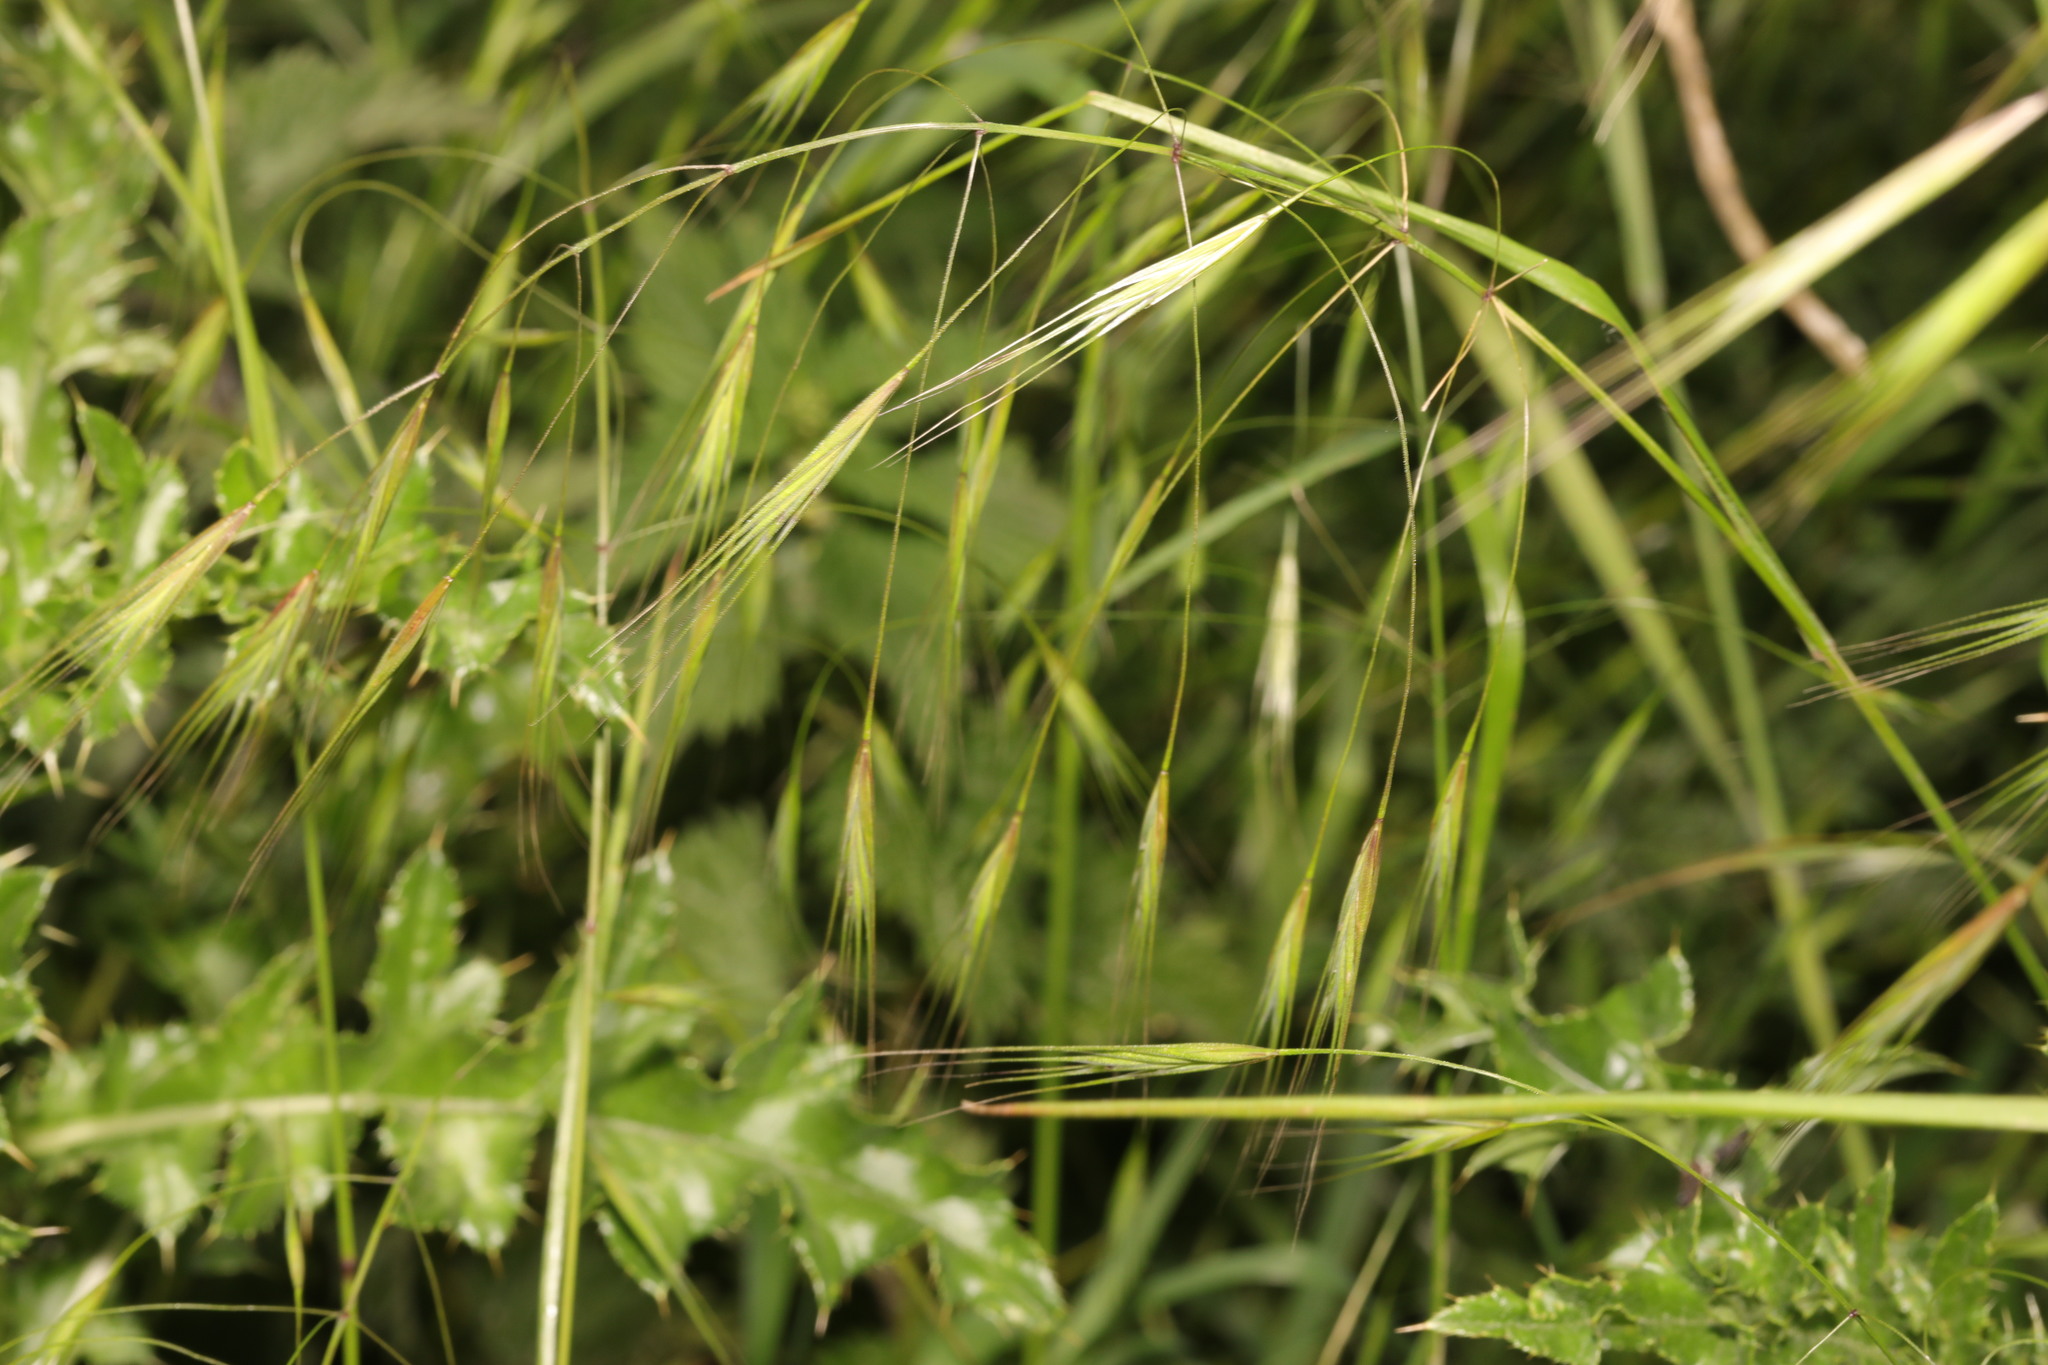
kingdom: Plantae
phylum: Tracheophyta
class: Liliopsida
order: Poales
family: Poaceae
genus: Bromus
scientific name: Bromus sterilis
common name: Poverty brome
